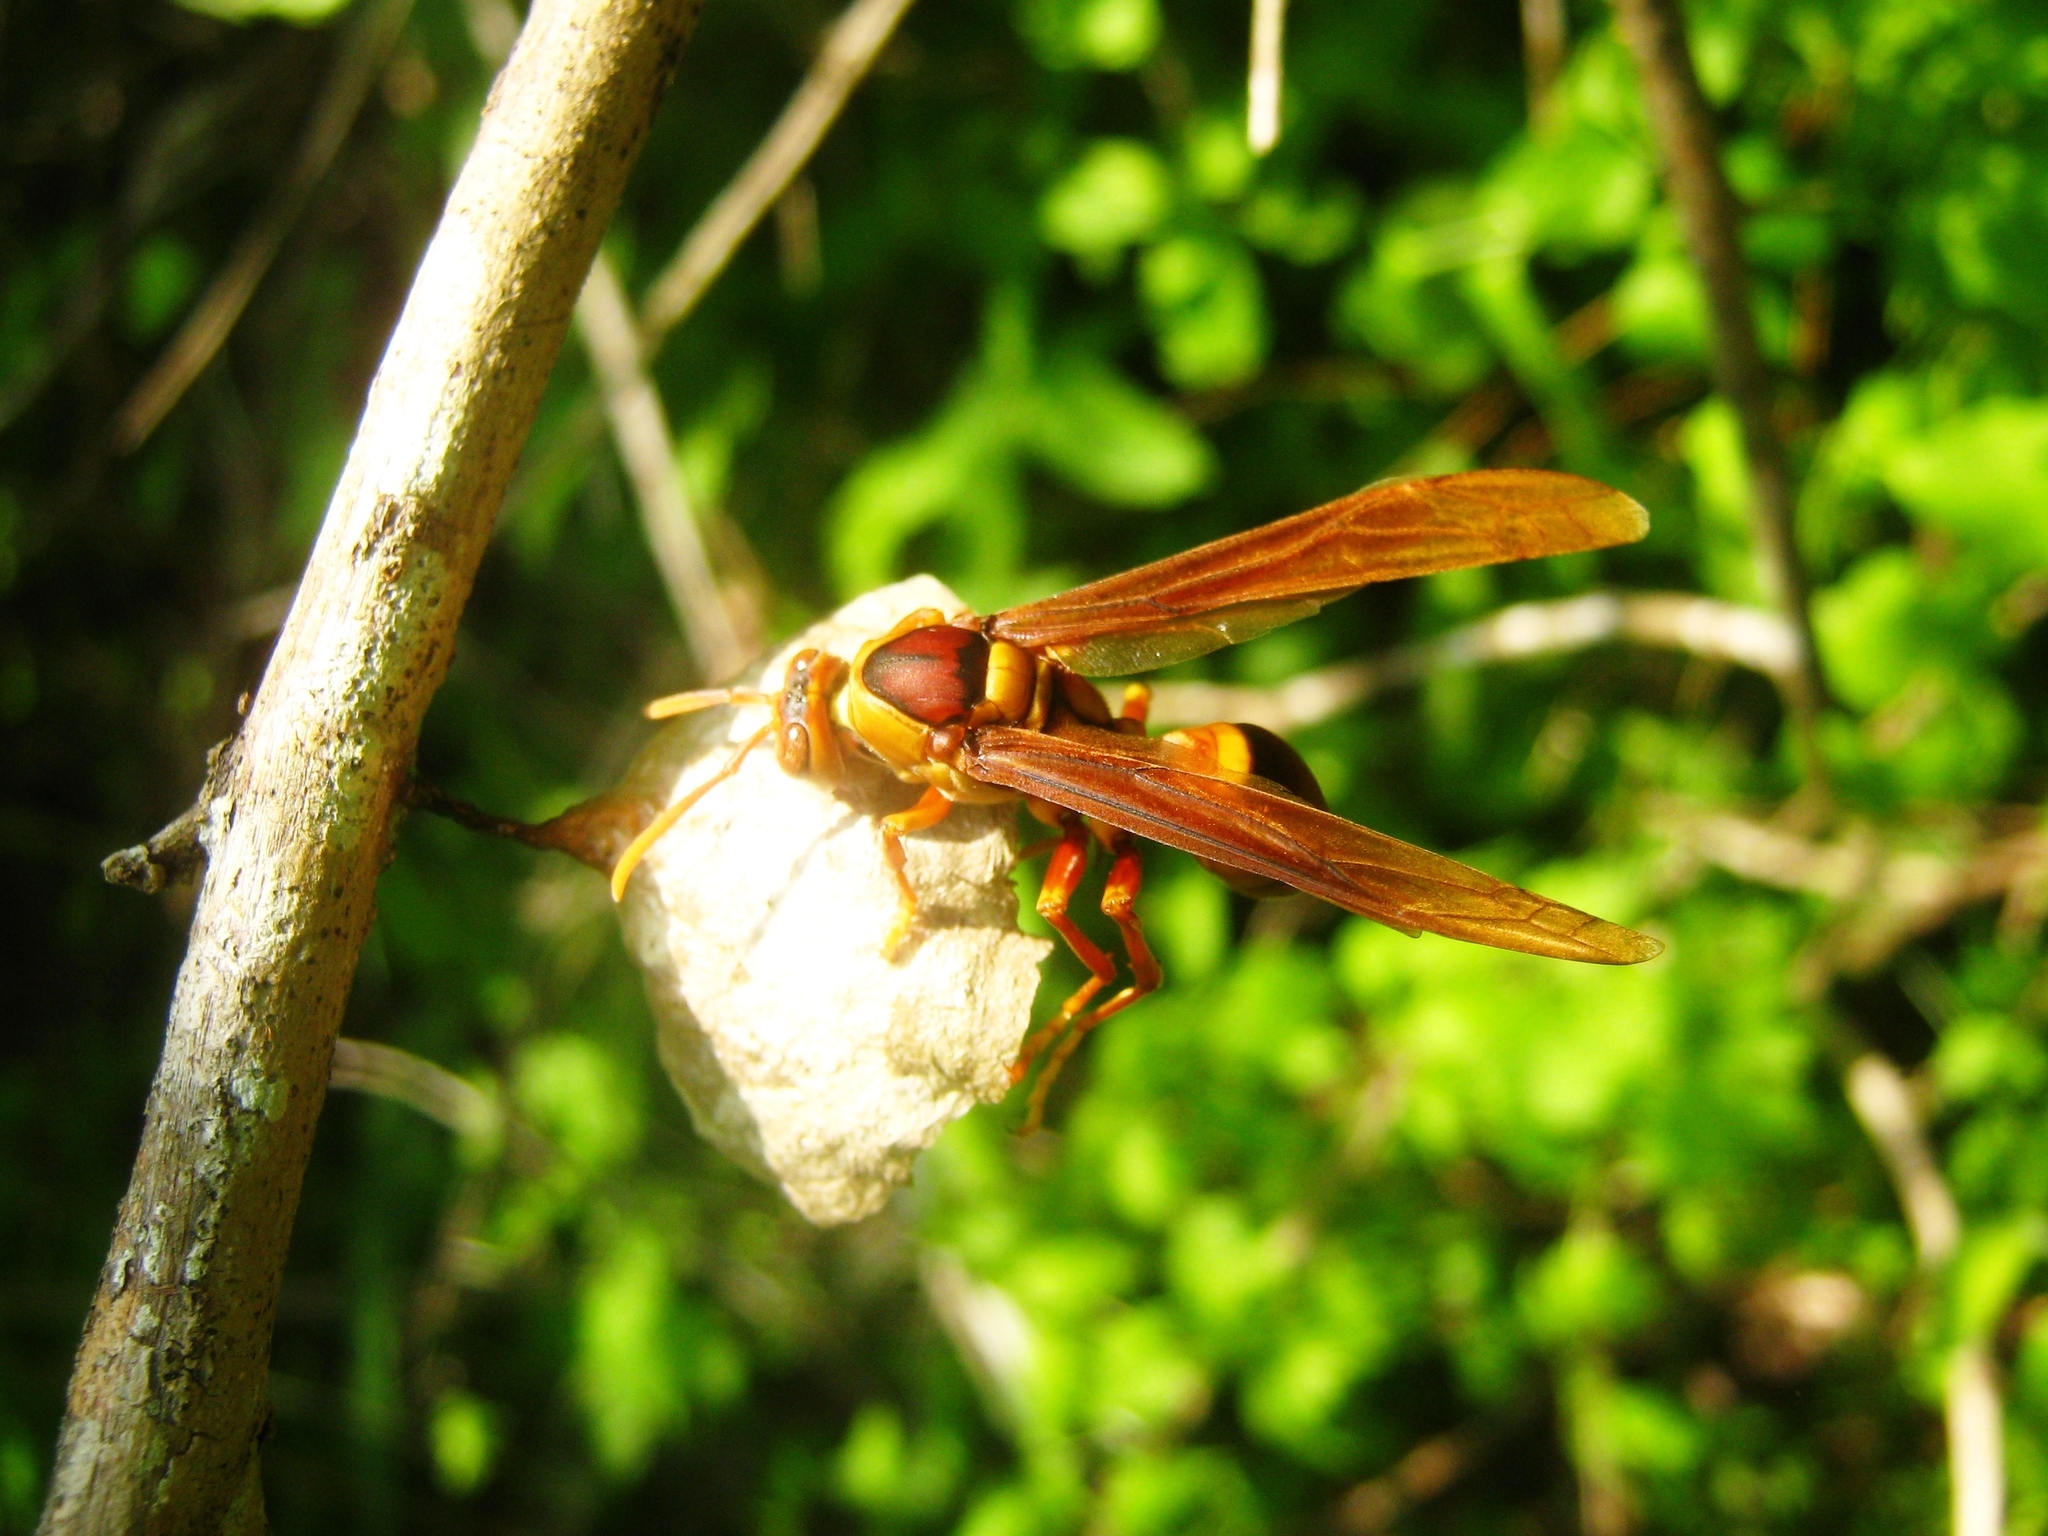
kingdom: Animalia
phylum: Arthropoda
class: Insecta
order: Hymenoptera
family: Eumenidae
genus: Polistes
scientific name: Polistes carnifex
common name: Paper wasp
